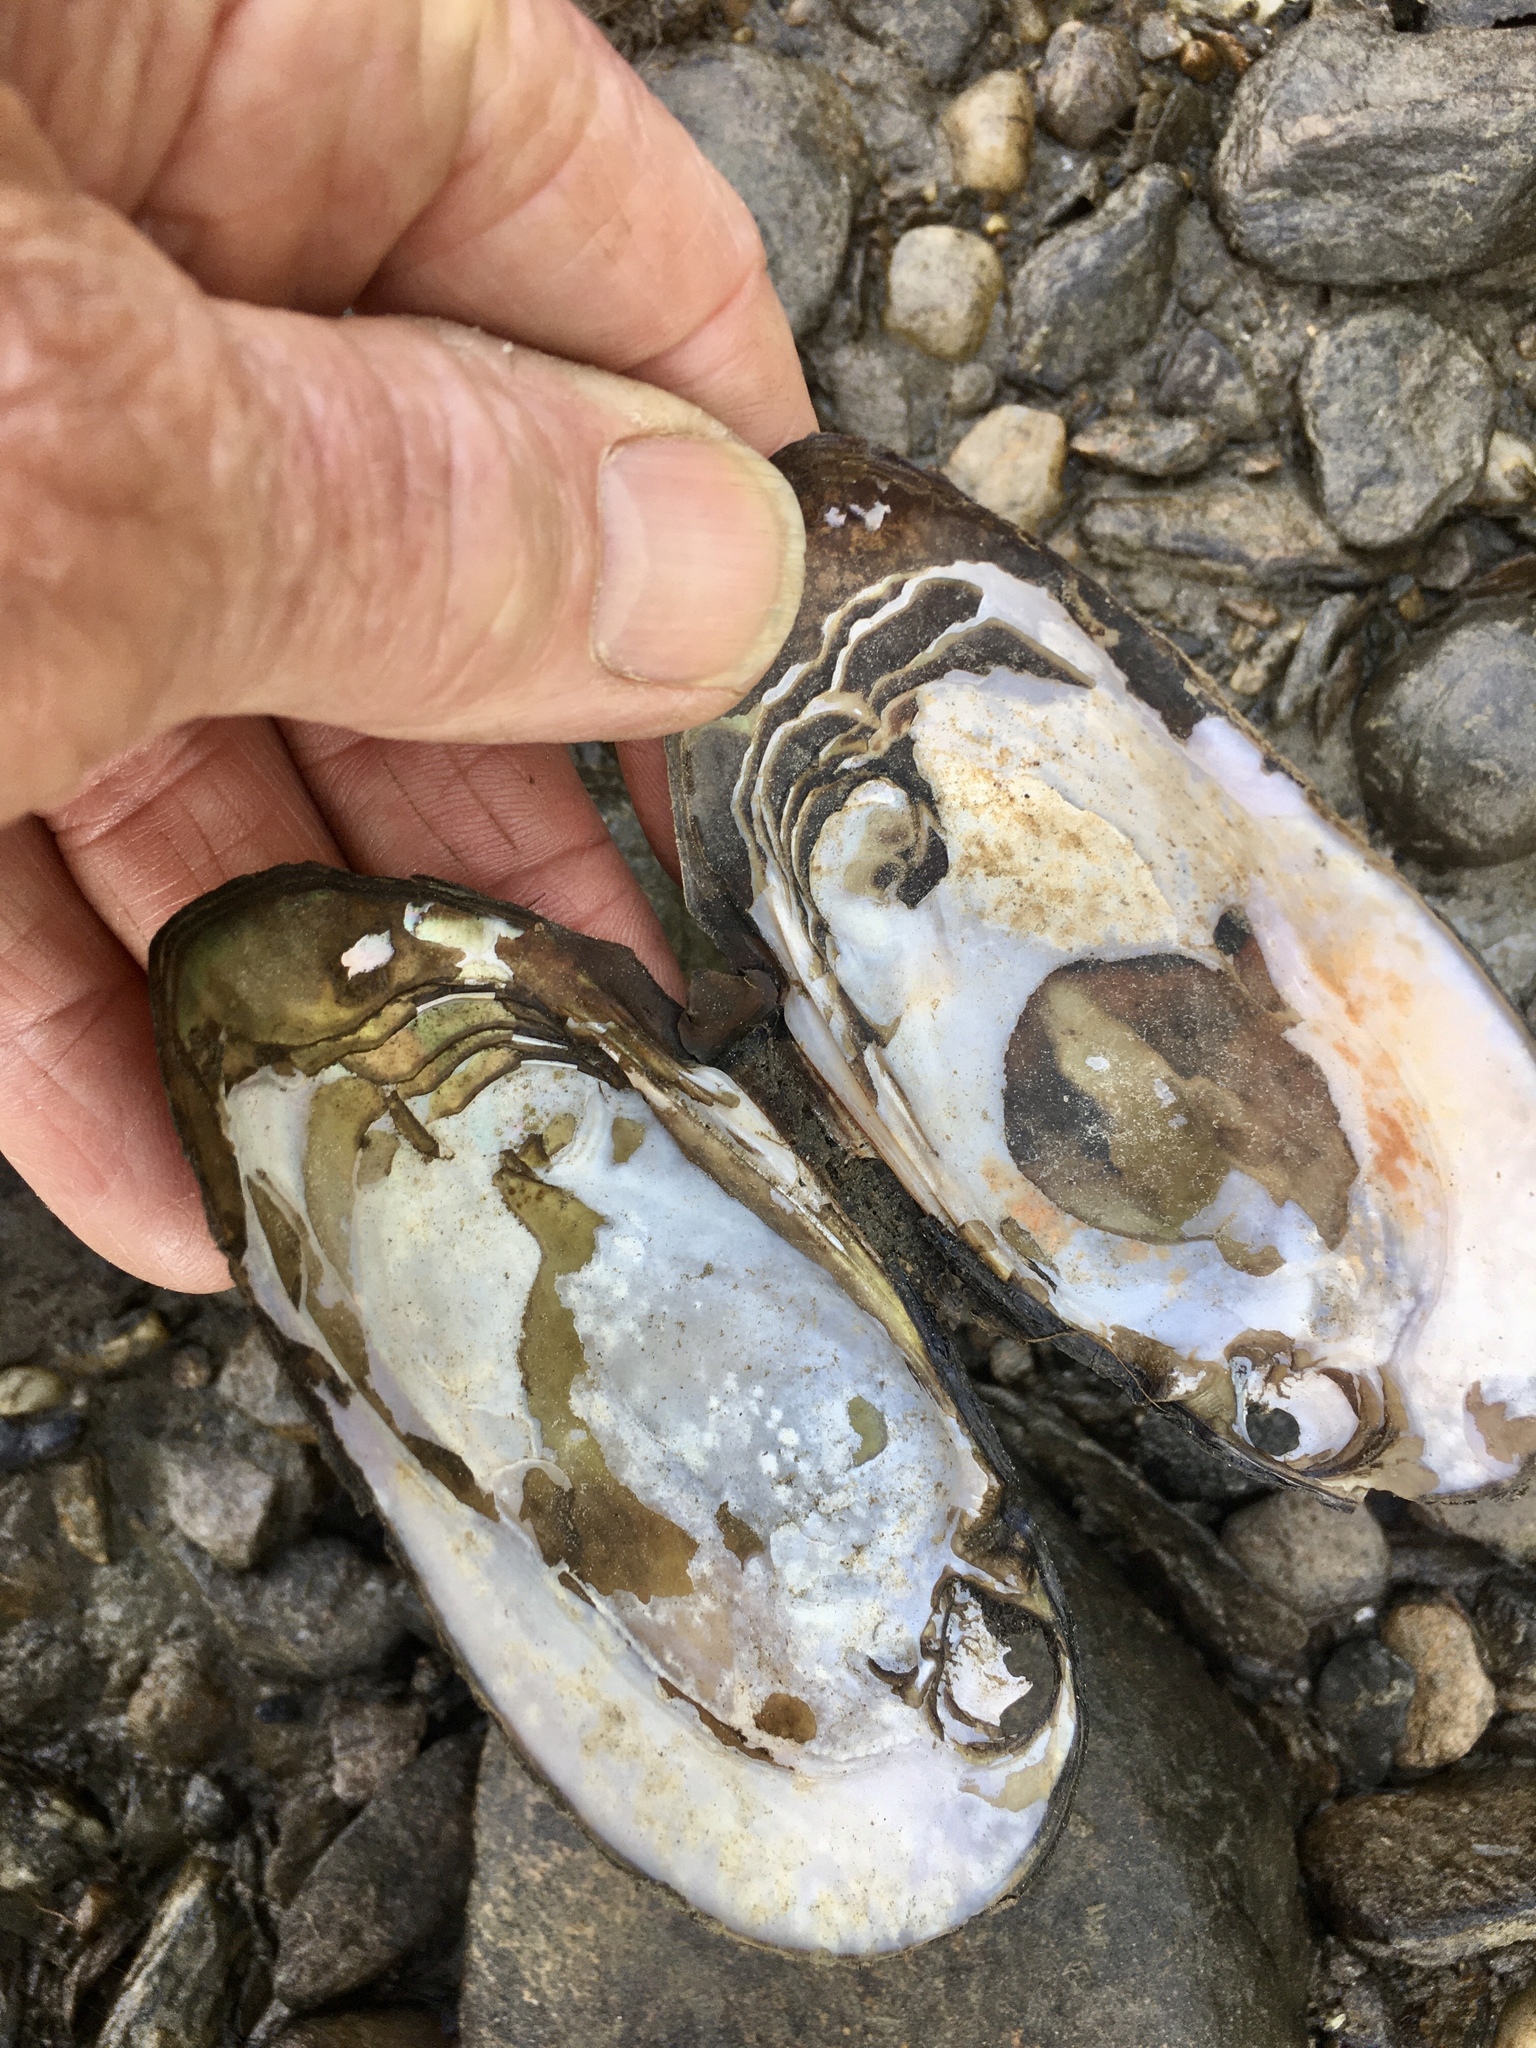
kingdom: Animalia
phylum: Mollusca
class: Bivalvia
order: Unionida
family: Unionidae
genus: Elliptio
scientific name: Elliptio complanata
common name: Eastern elliptio
